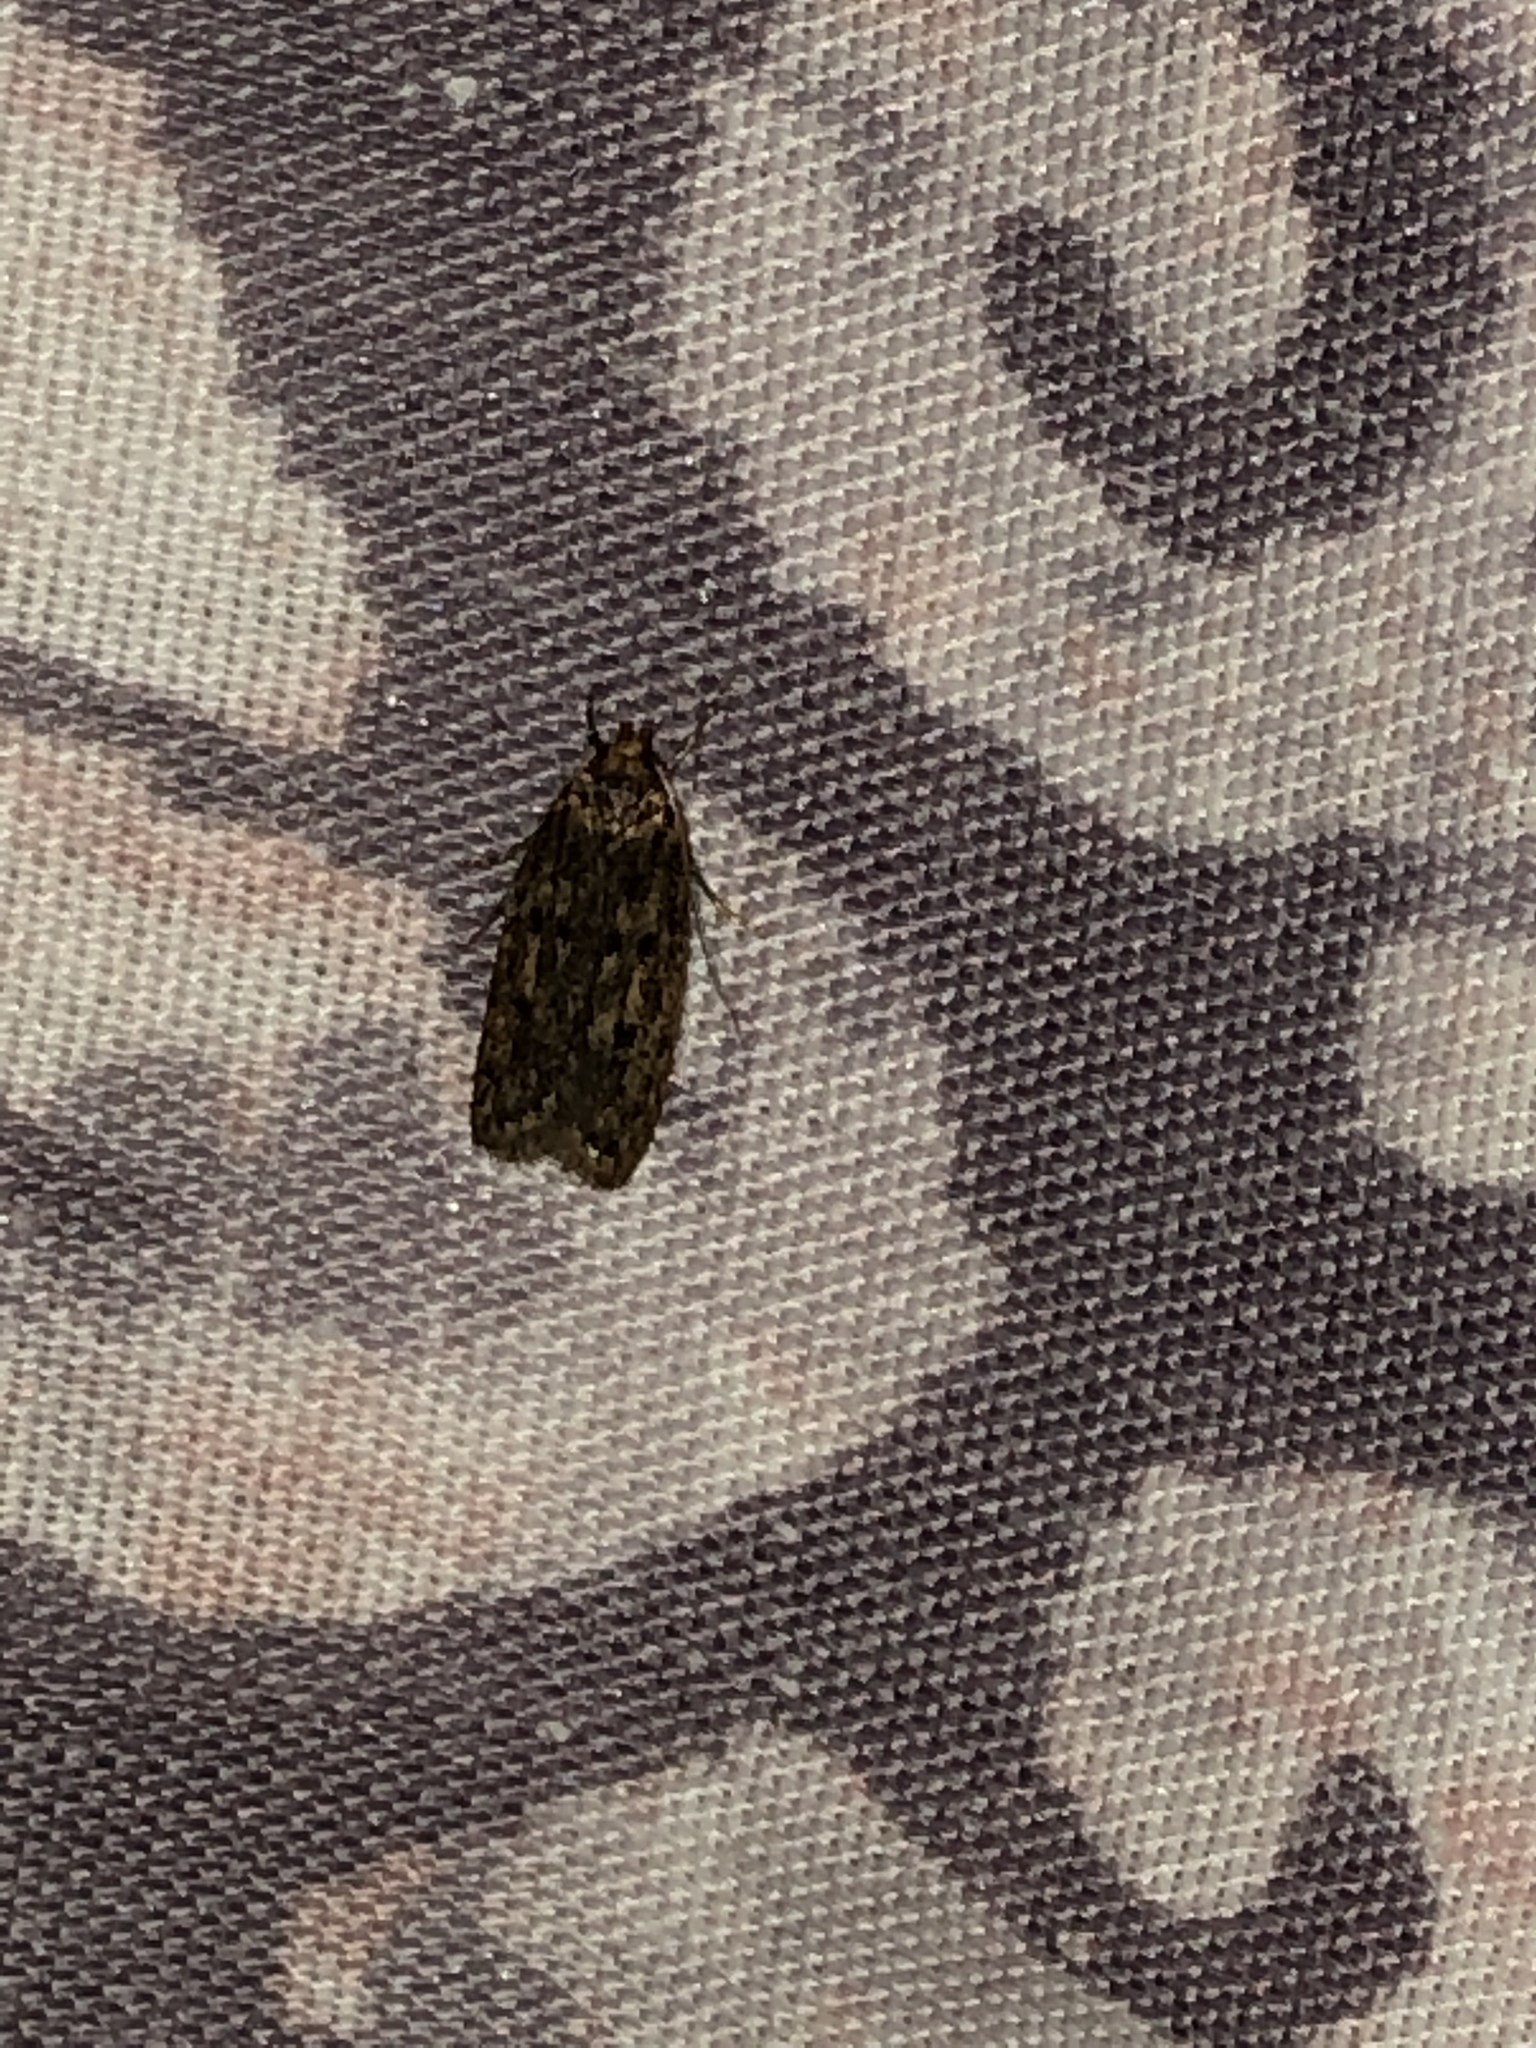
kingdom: Animalia
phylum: Arthropoda
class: Insecta
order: Lepidoptera
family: Oecophoridae
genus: Hofmannophila
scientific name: Hofmannophila pseudospretella
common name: Brown house moth
